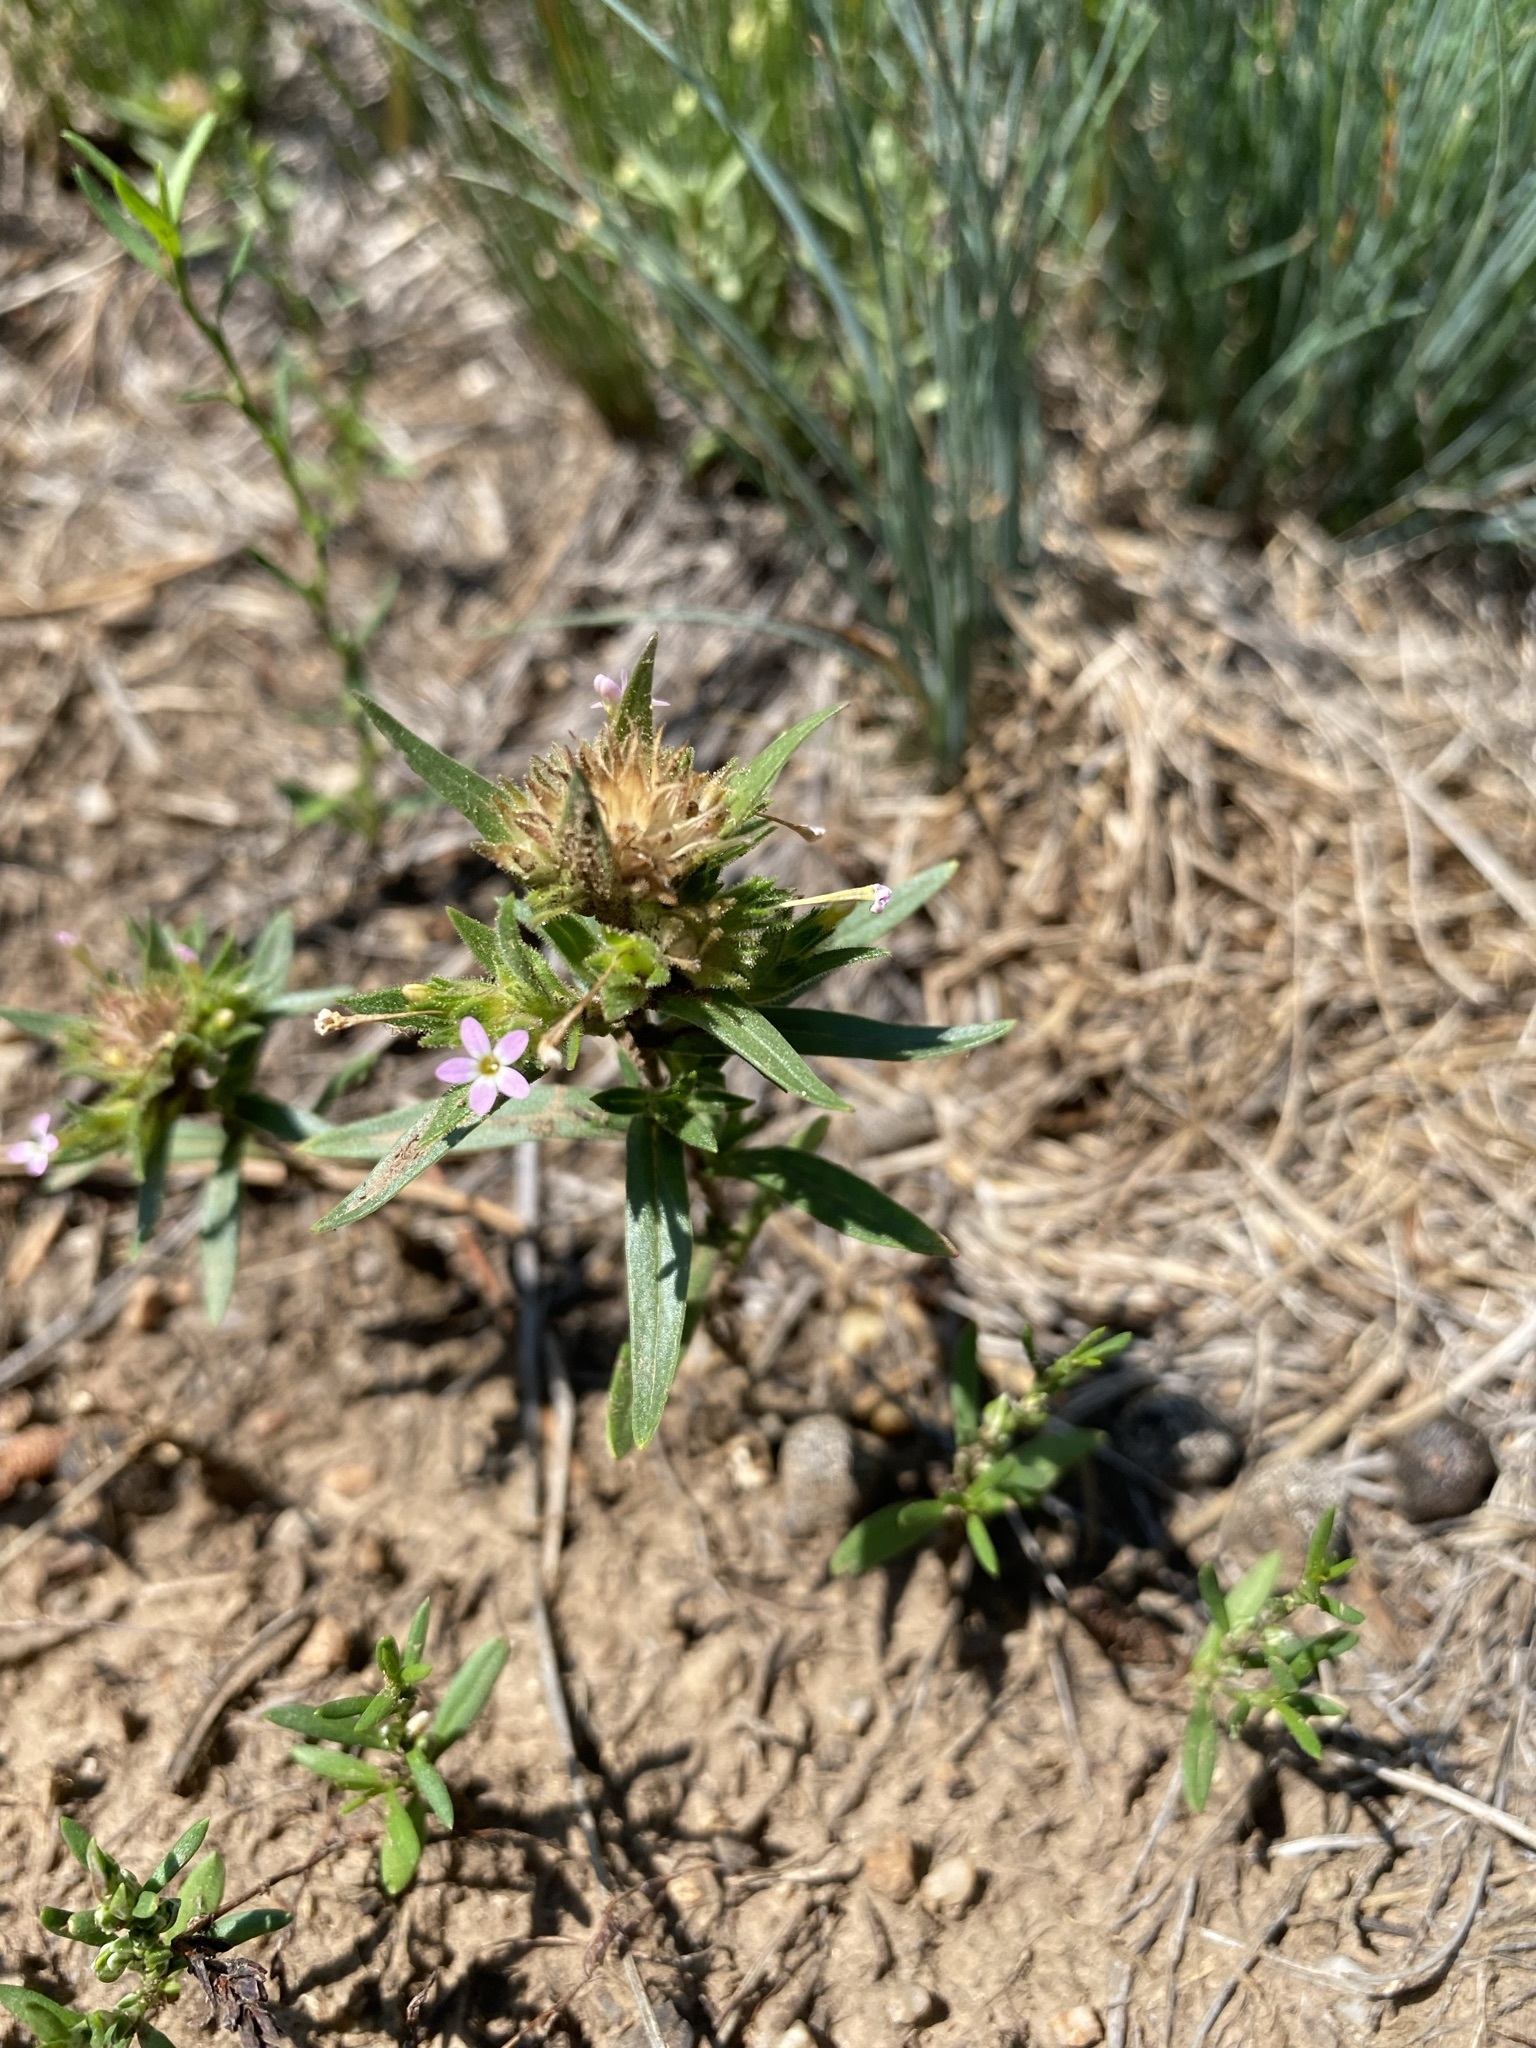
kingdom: Plantae
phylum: Tracheophyta
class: Magnoliopsida
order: Ericales
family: Polemoniaceae
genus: Collomia
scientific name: Collomia linearis
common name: Tiny trumpet
